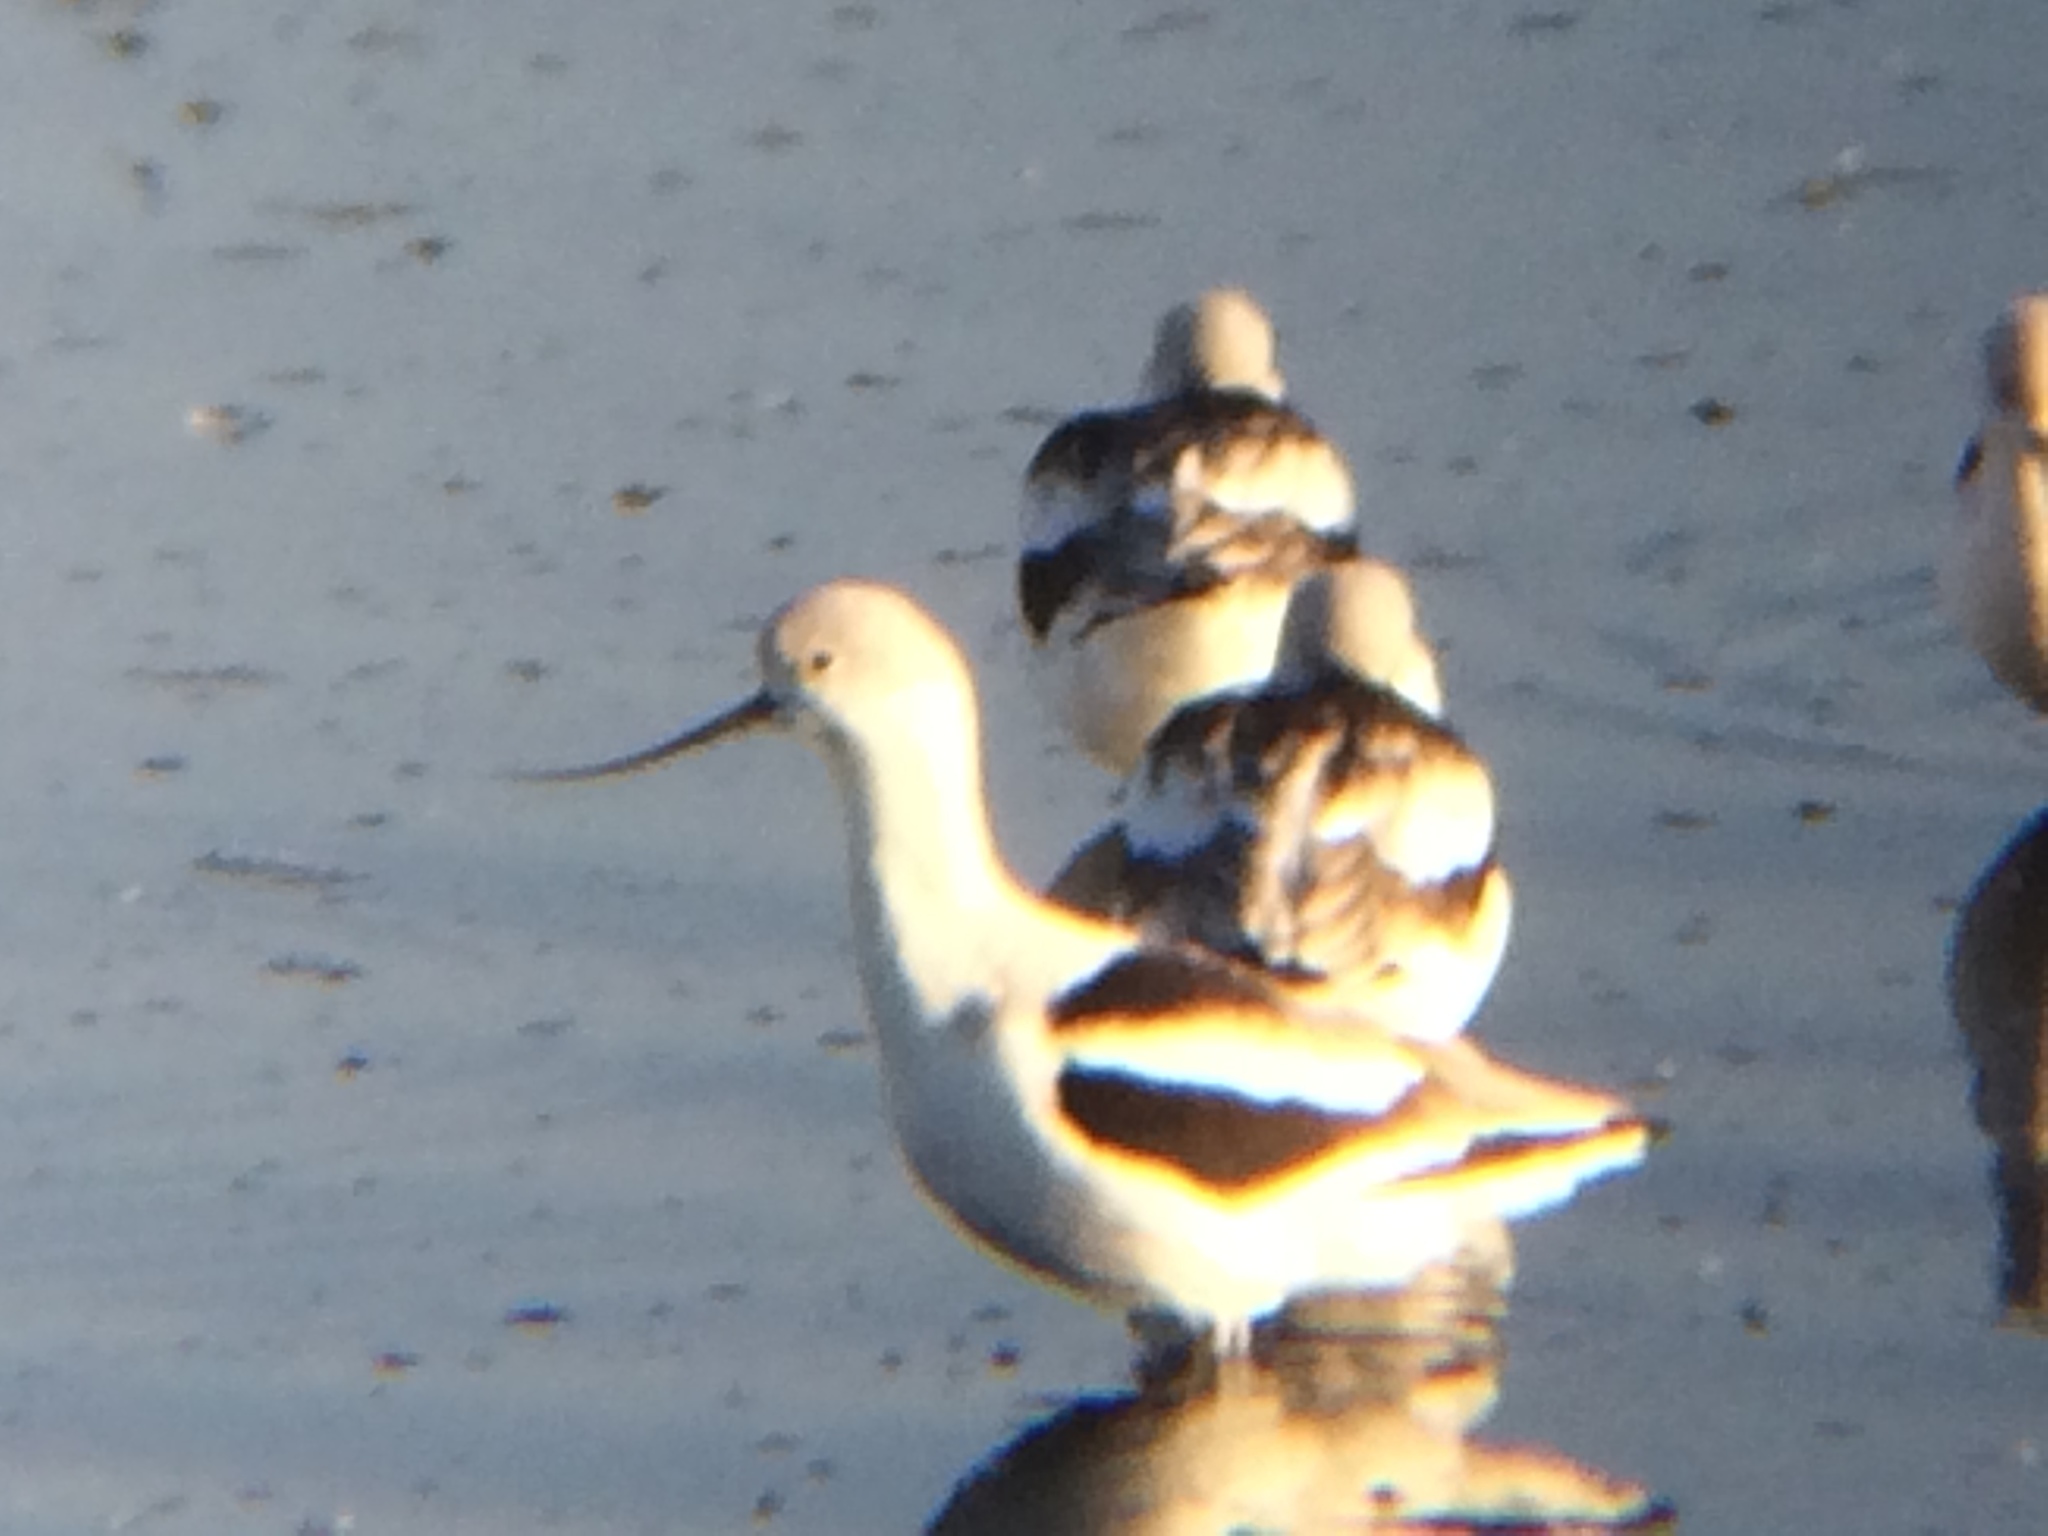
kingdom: Animalia
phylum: Chordata
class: Aves
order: Charadriiformes
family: Recurvirostridae
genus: Recurvirostra
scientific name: Recurvirostra americana
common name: American avocet
